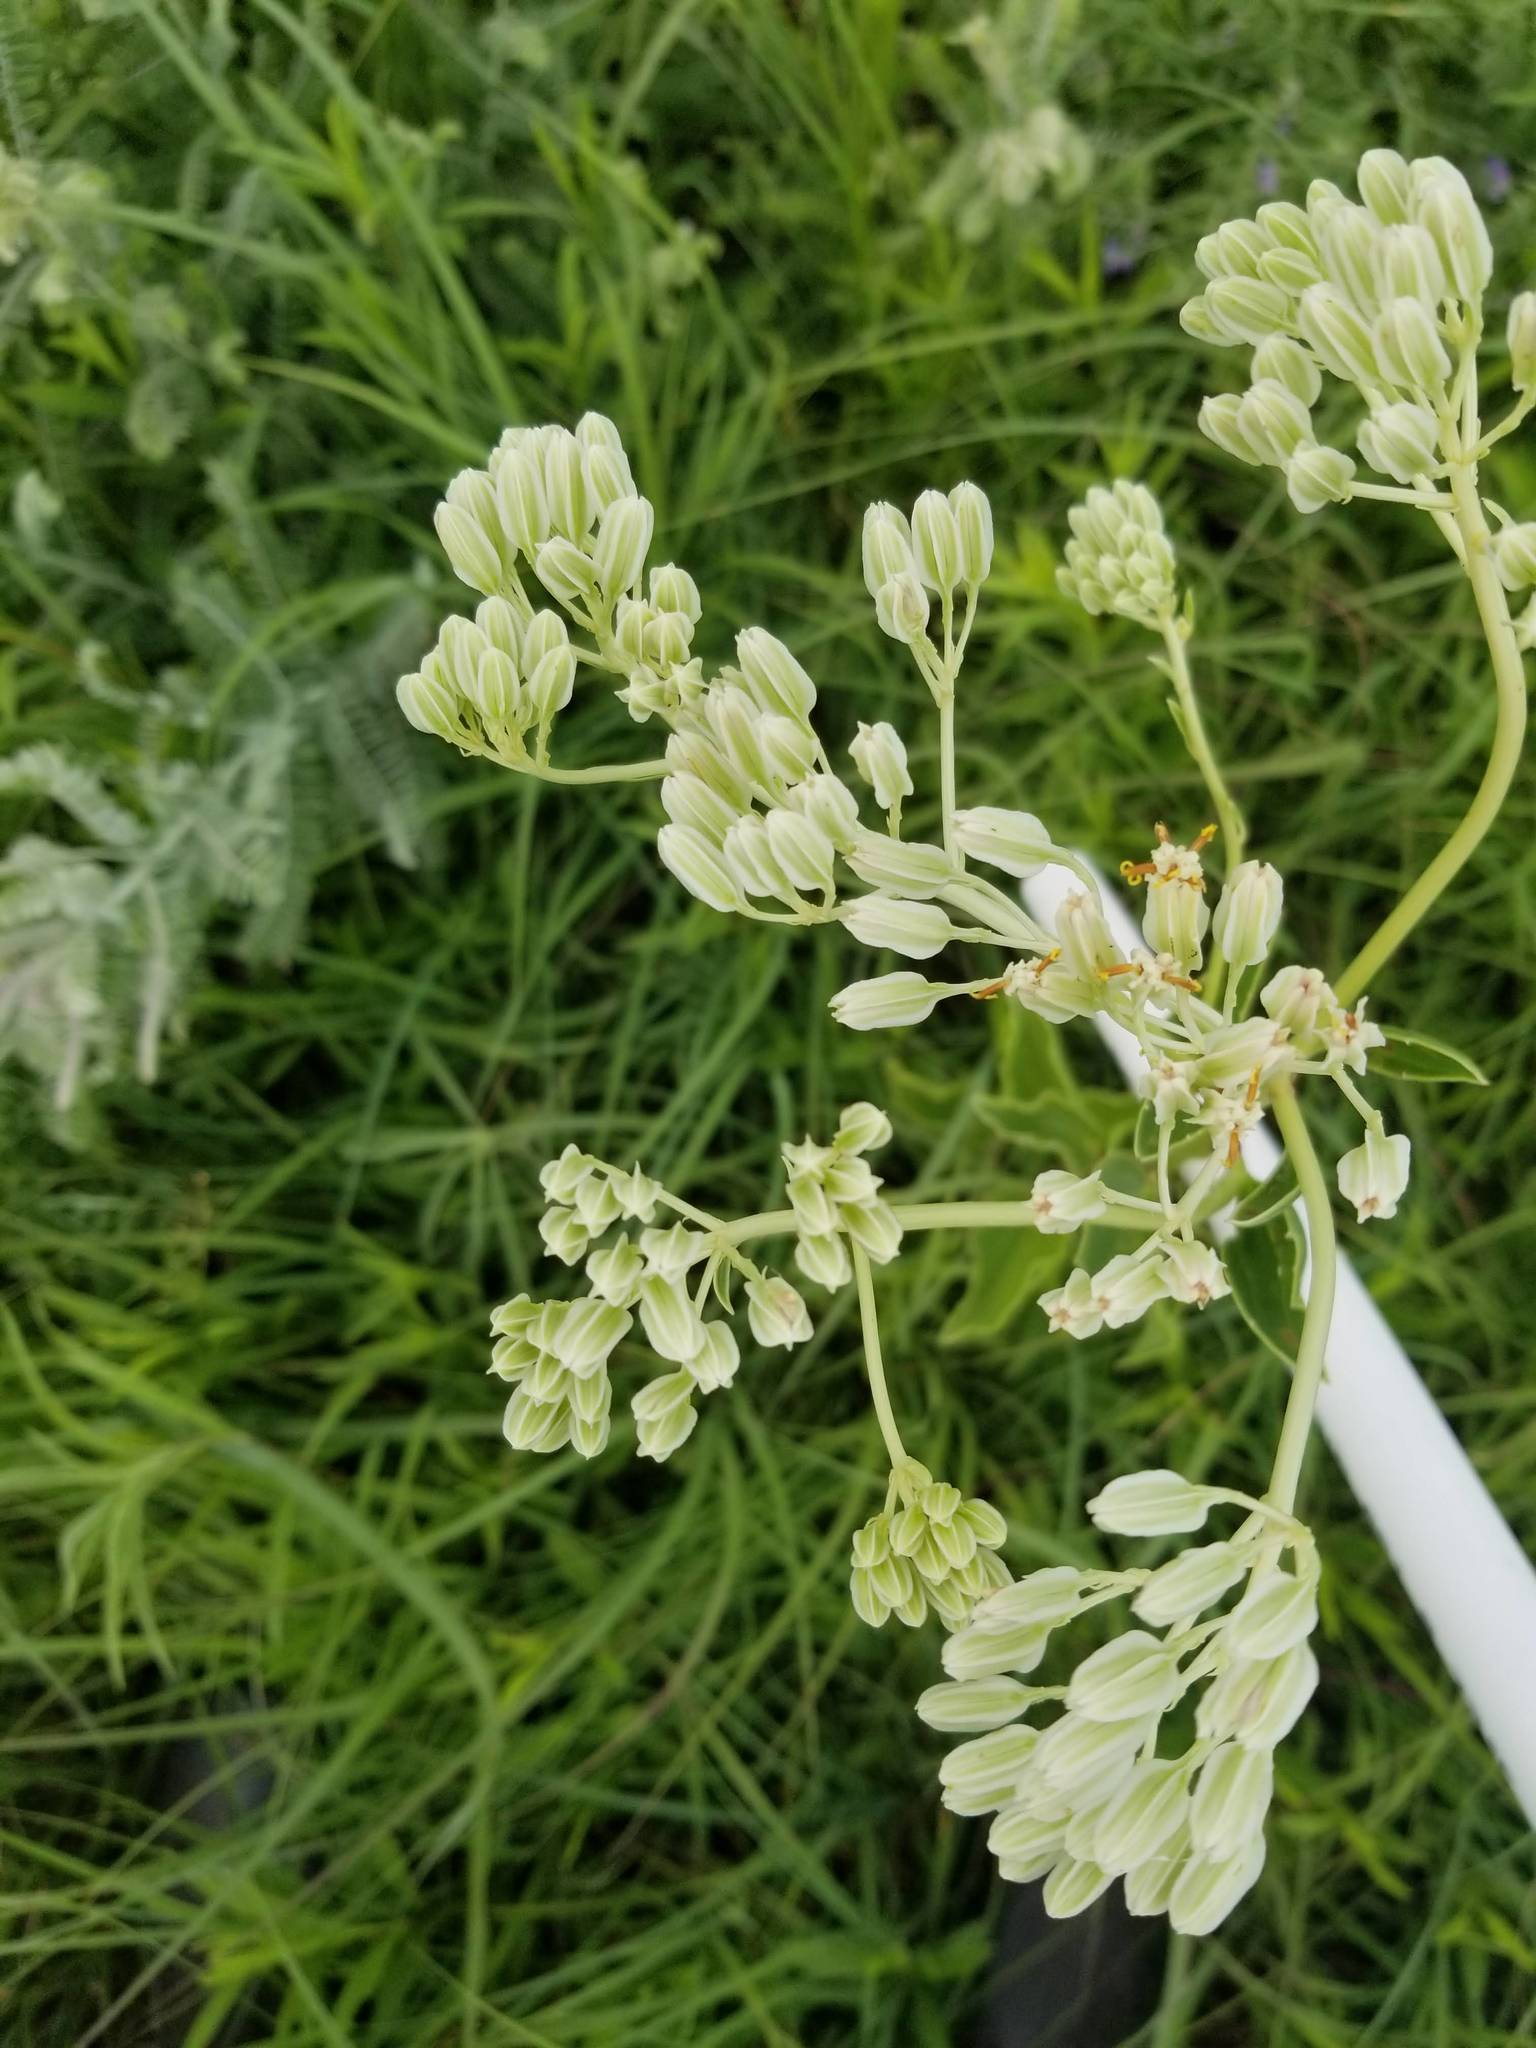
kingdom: Plantae
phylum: Tracheophyta
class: Magnoliopsida
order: Asterales
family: Asteraceae
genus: Arnoglossum
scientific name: Arnoglossum plantagineum
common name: Groove-stemmed indian-plantain
